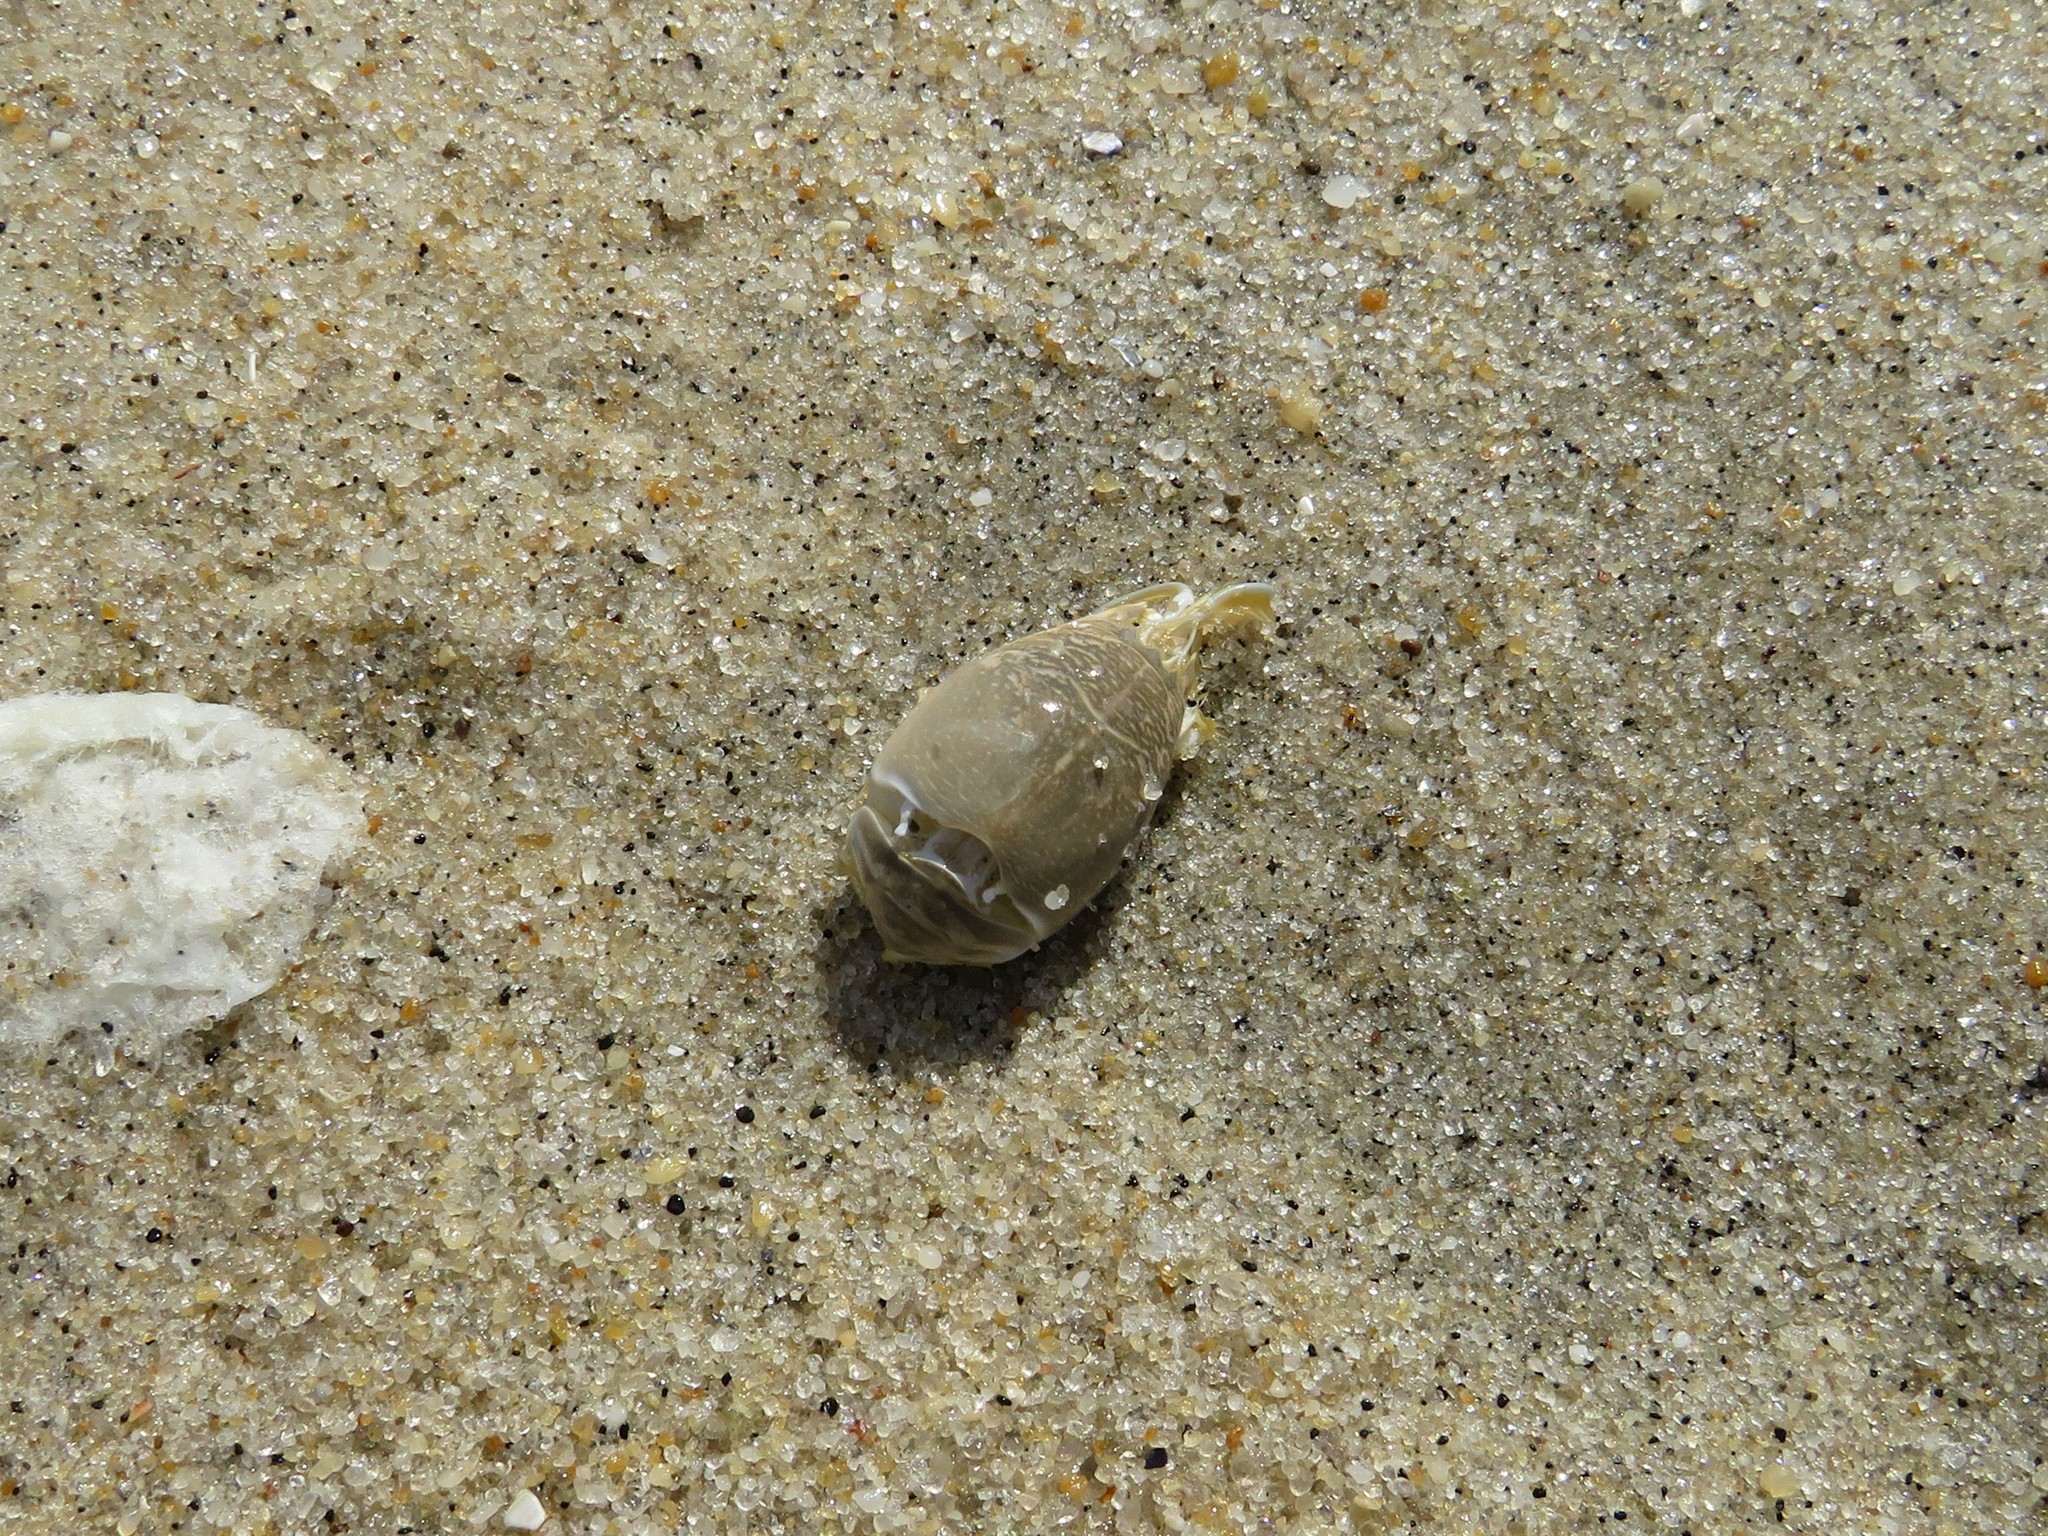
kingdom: Animalia
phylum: Arthropoda
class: Malacostraca
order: Decapoda
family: Hippidae
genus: Emerita
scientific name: Emerita talpoida
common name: Atlantic sand crab
